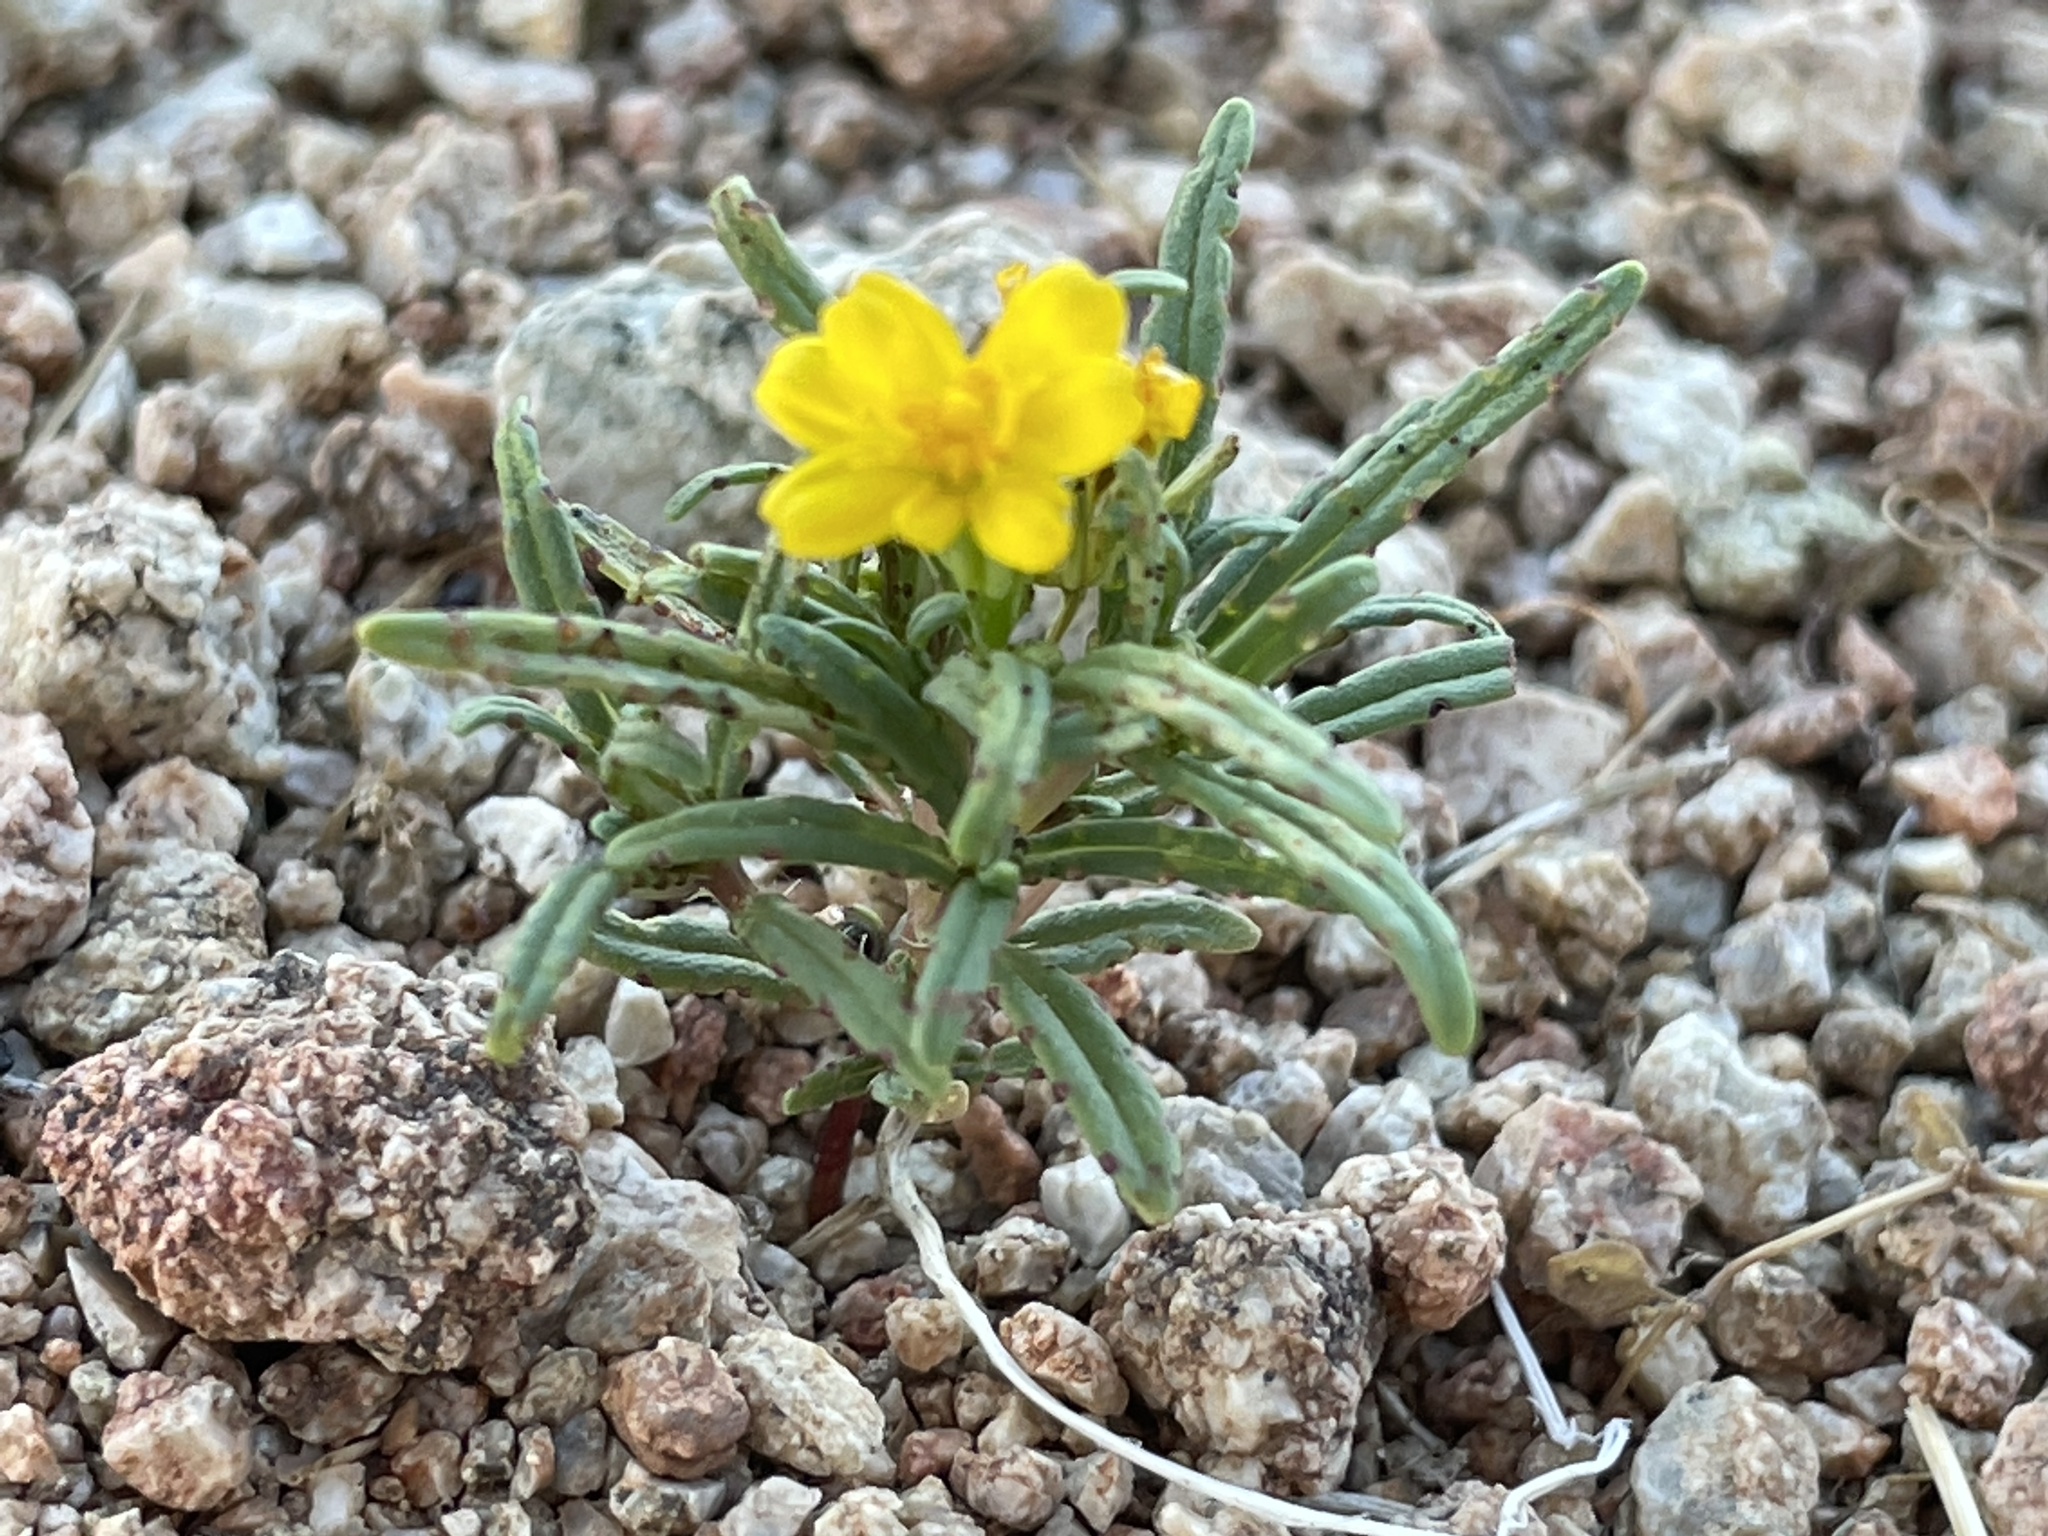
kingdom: Plantae
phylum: Tracheophyta
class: Magnoliopsida
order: Asterales
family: Asteraceae
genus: Pectis
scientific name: Pectis papposa
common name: Many-bristle chinchweed
